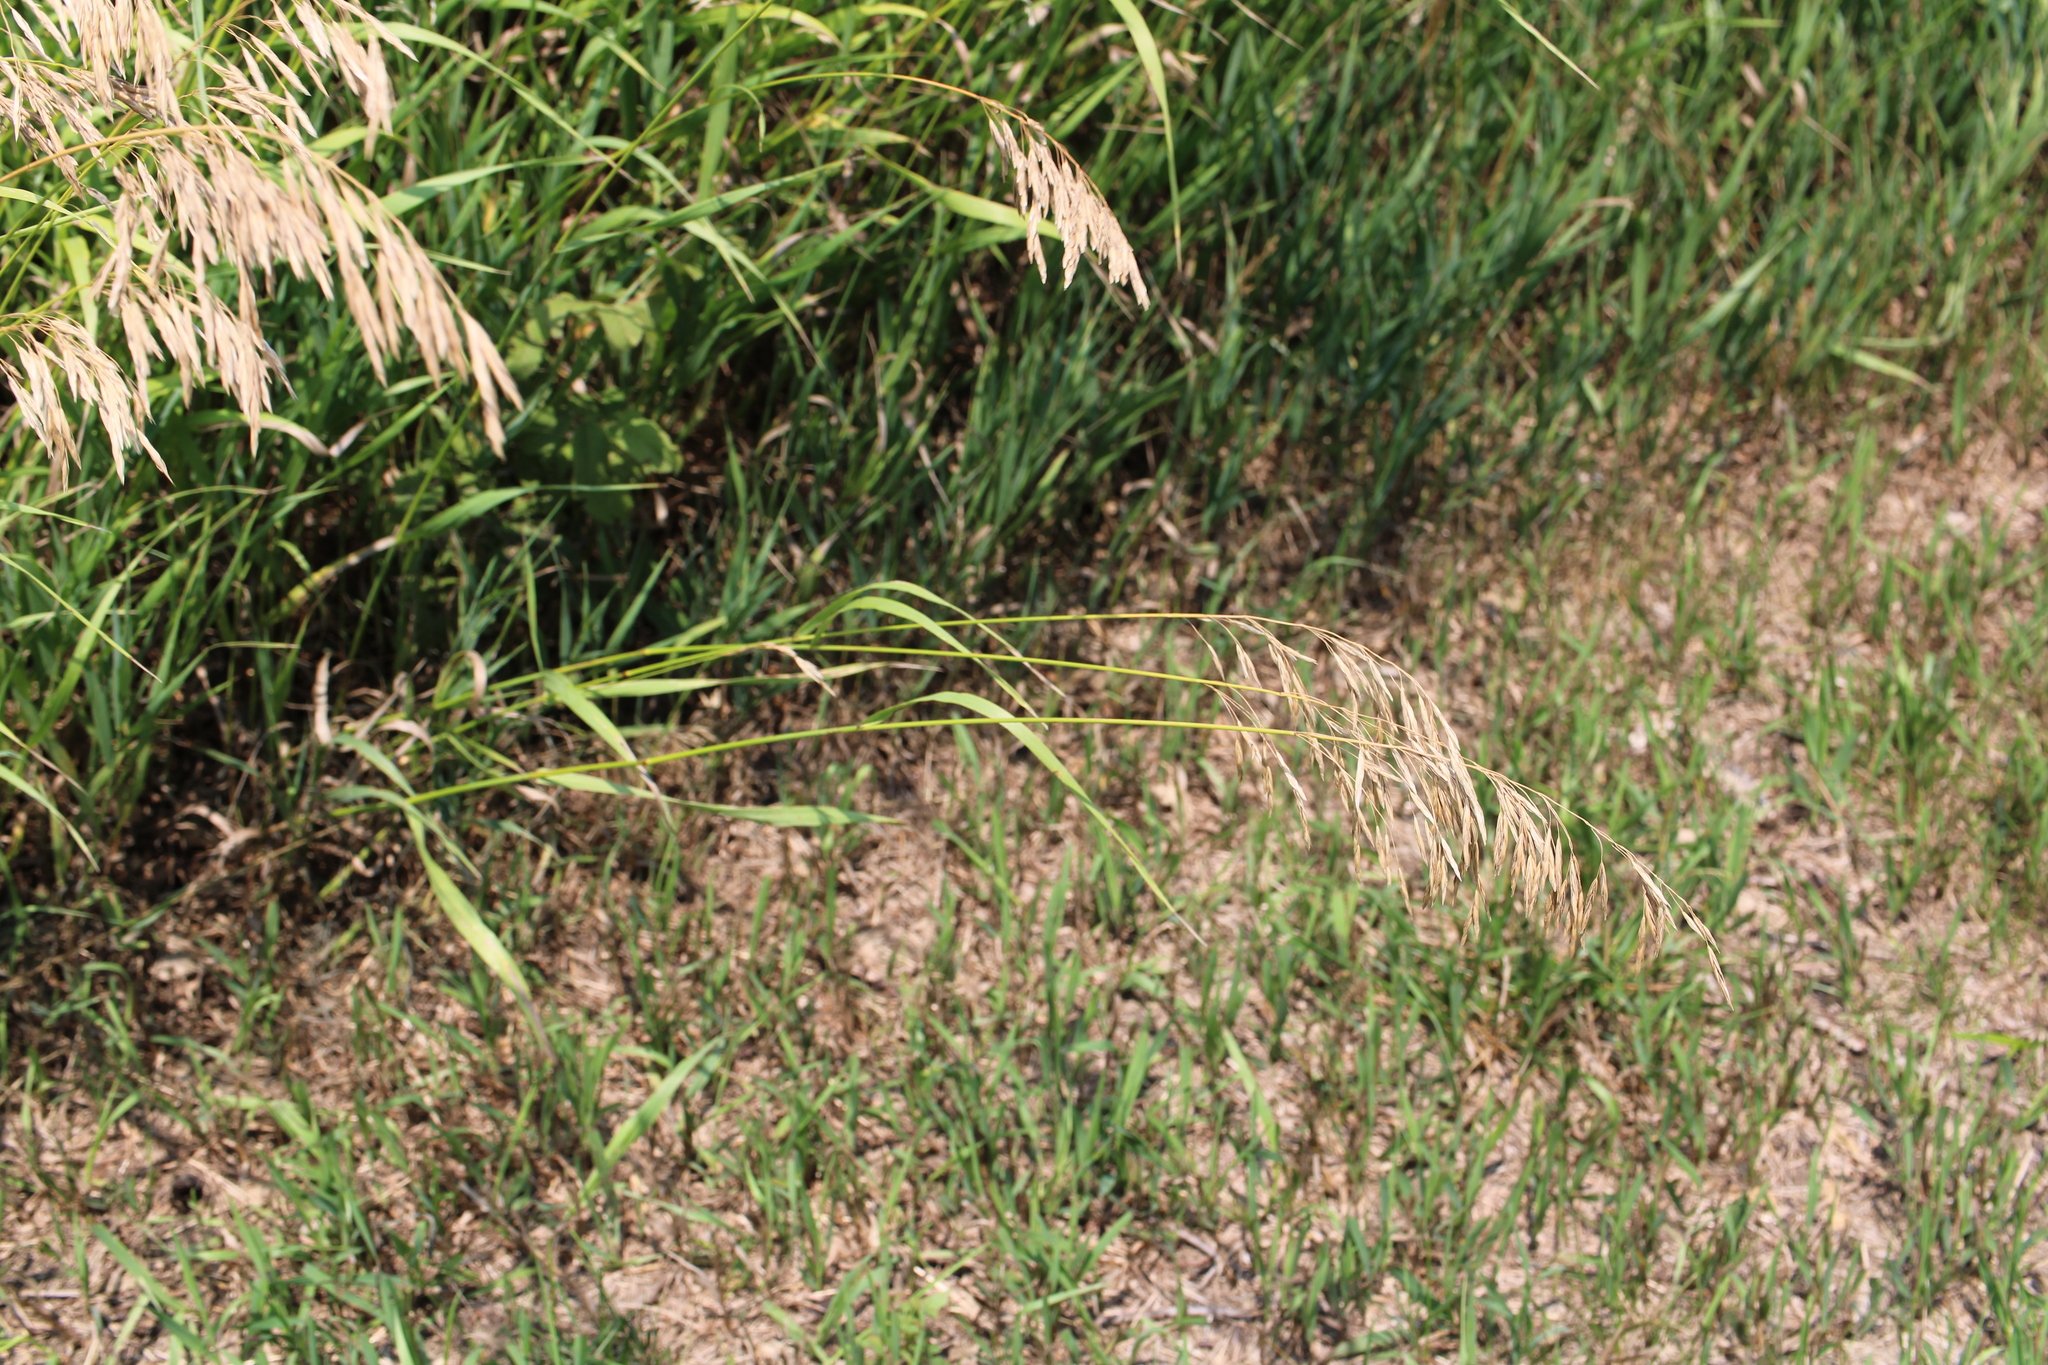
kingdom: Plantae
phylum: Tracheophyta
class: Liliopsida
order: Poales
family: Poaceae
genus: Bromus
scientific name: Bromus inermis
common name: Smooth brome
